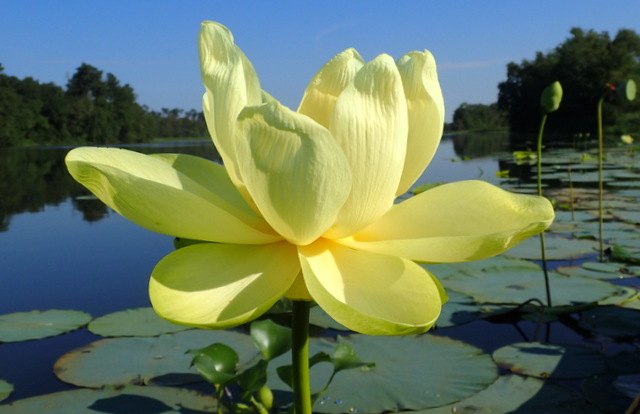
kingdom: Plantae
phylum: Tracheophyta
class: Magnoliopsida
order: Proteales
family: Nelumbonaceae
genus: Nelumbo
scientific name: Nelumbo lutea
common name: American lotus
